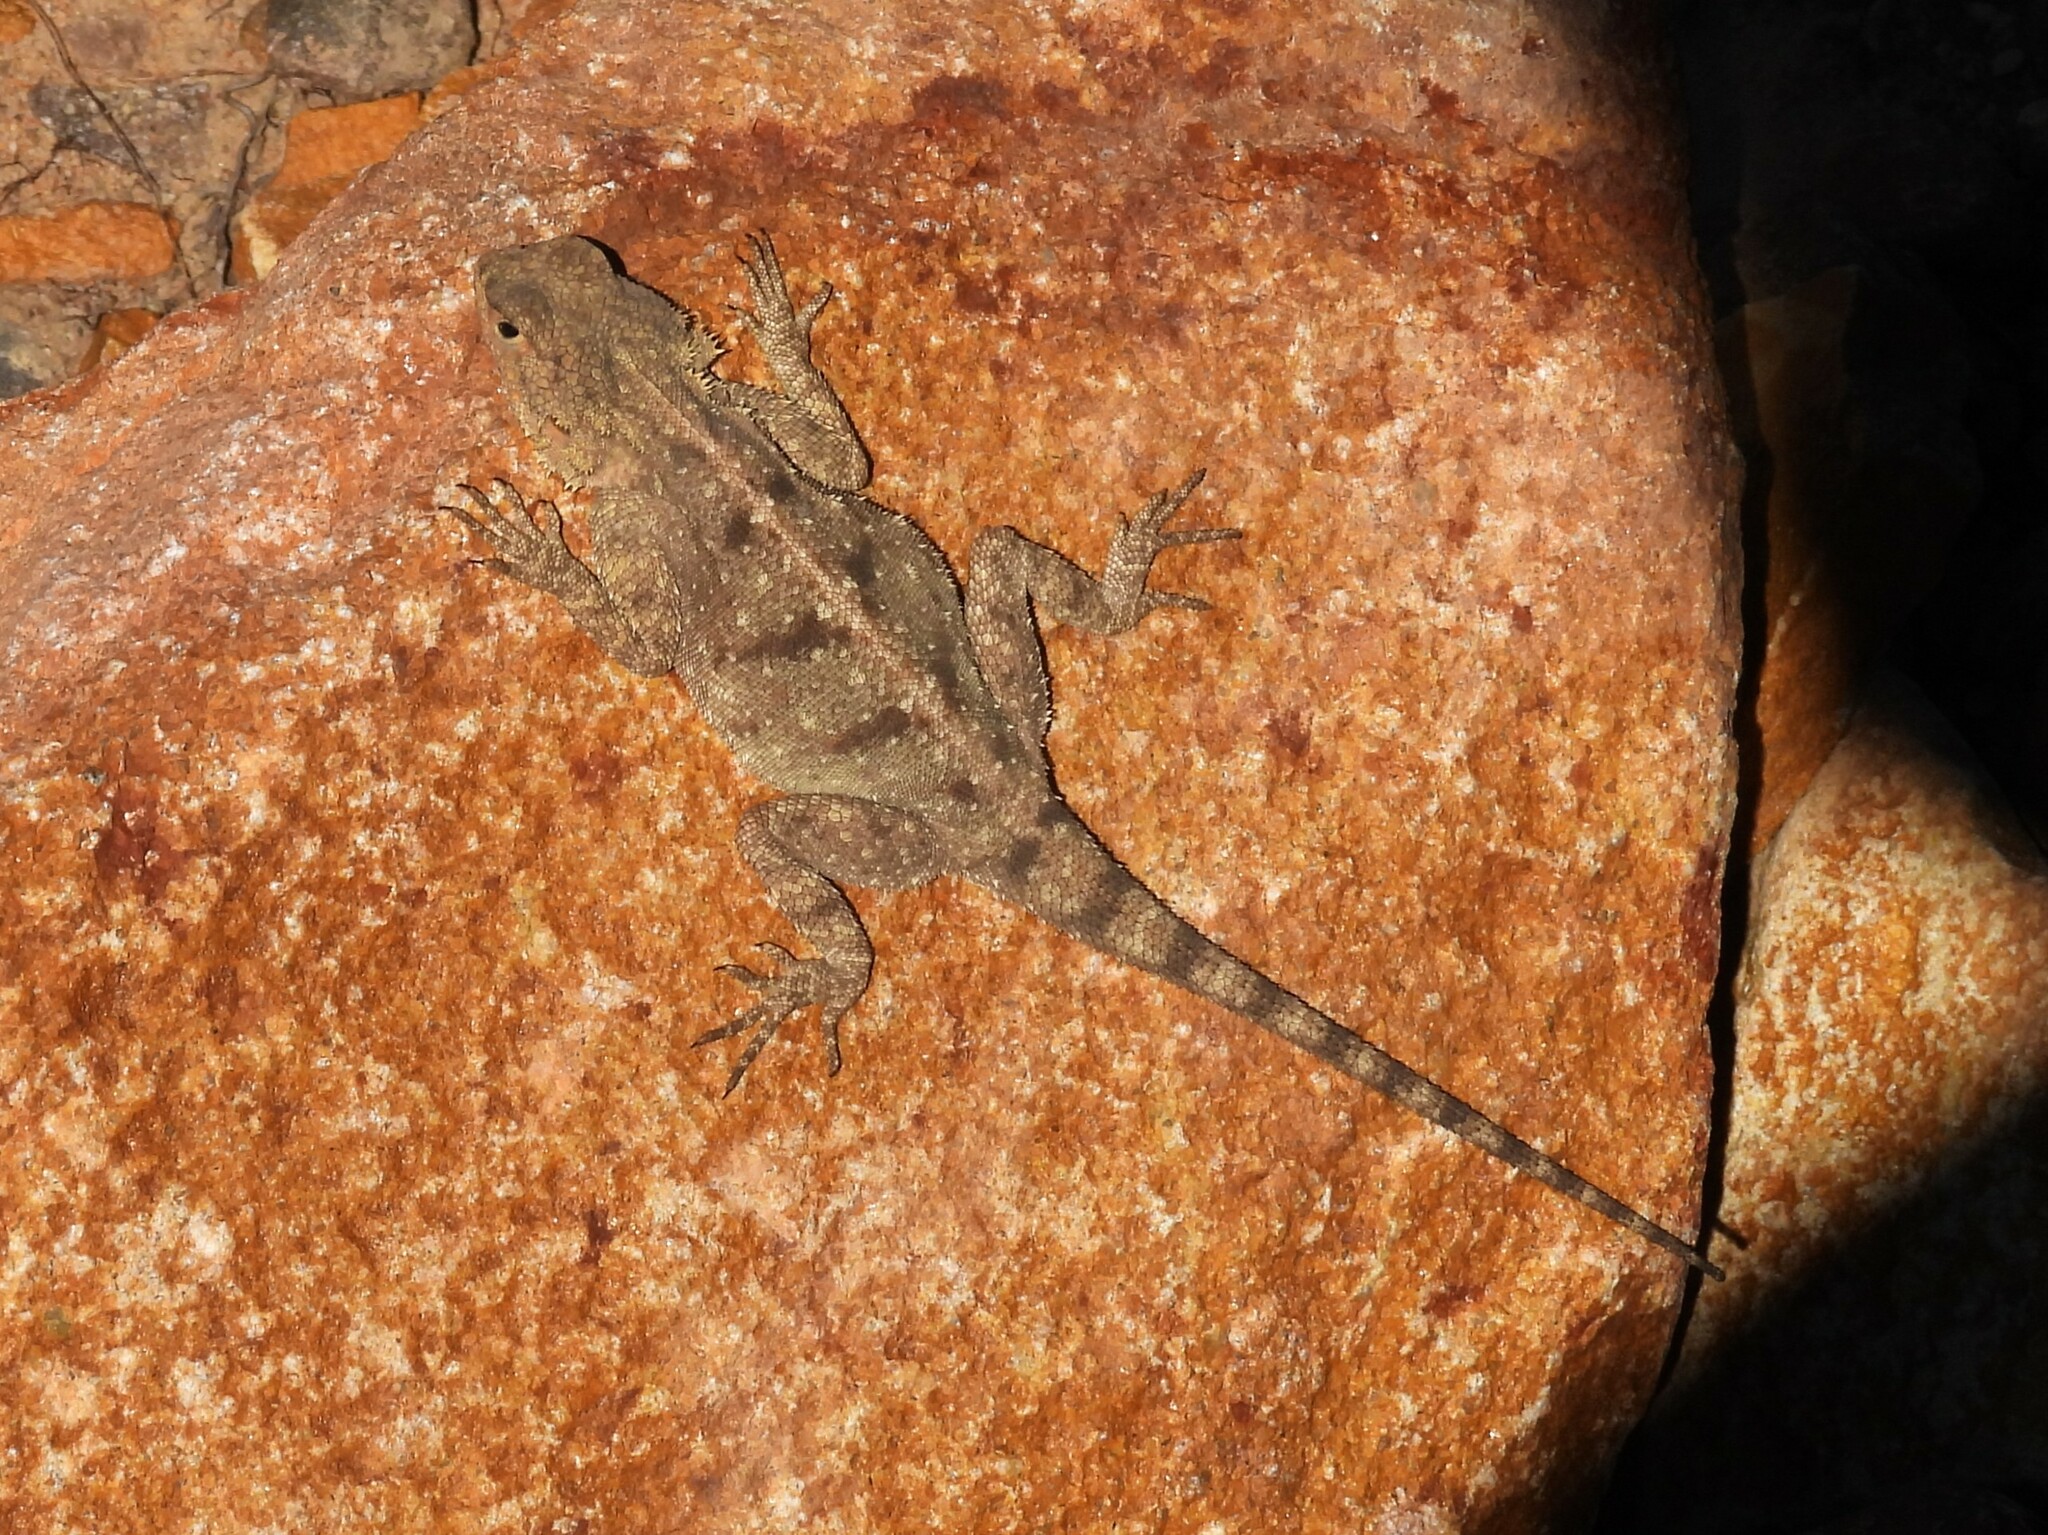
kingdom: Animalia
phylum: Chordata
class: Squamata
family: Agamidae
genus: Agama
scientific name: Agama atra
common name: Southern african rock agama
